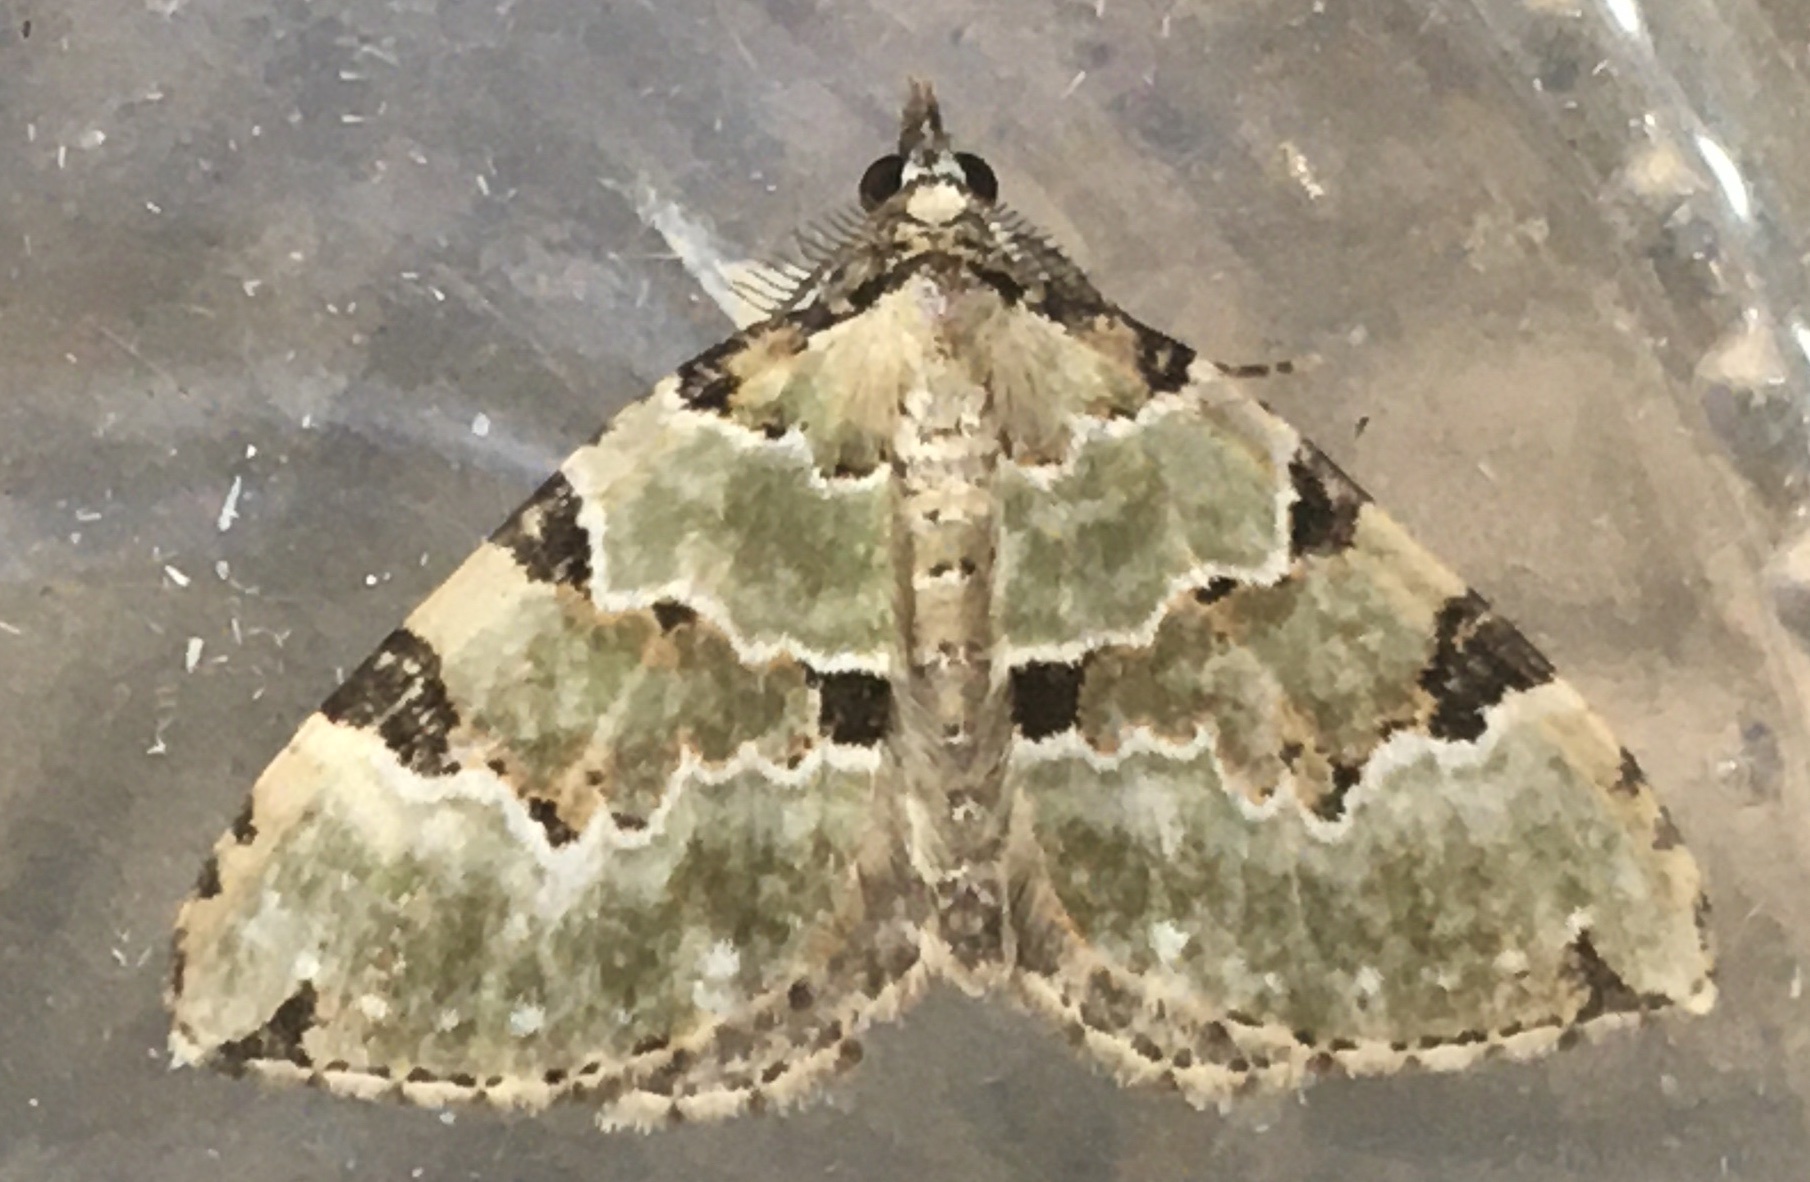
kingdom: Animalia
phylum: Arthropoda
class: Insecta
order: Lepidoptera
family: Geometridae
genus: Colostygia
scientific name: Colostygia pectinataria
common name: Green carpet
